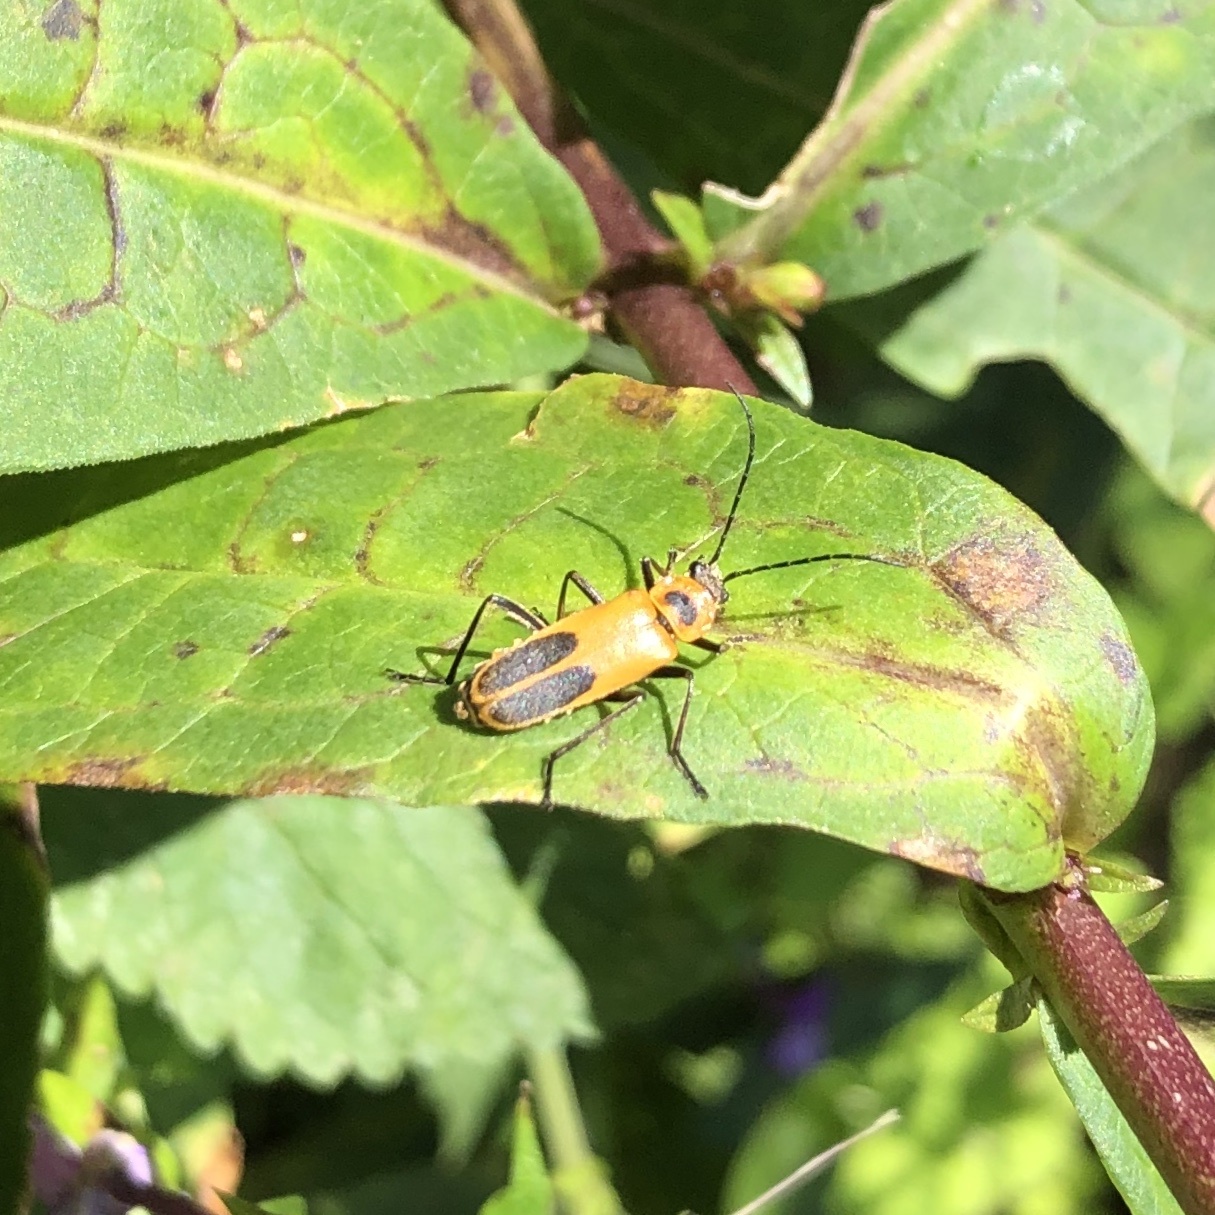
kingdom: Animalia
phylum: Arthropoda
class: Insecta
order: Coleoptera
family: Cantharidae
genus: Chauliognathus
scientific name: Chauliognathus pensylvanicus
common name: Goldenrod soldier beetle
